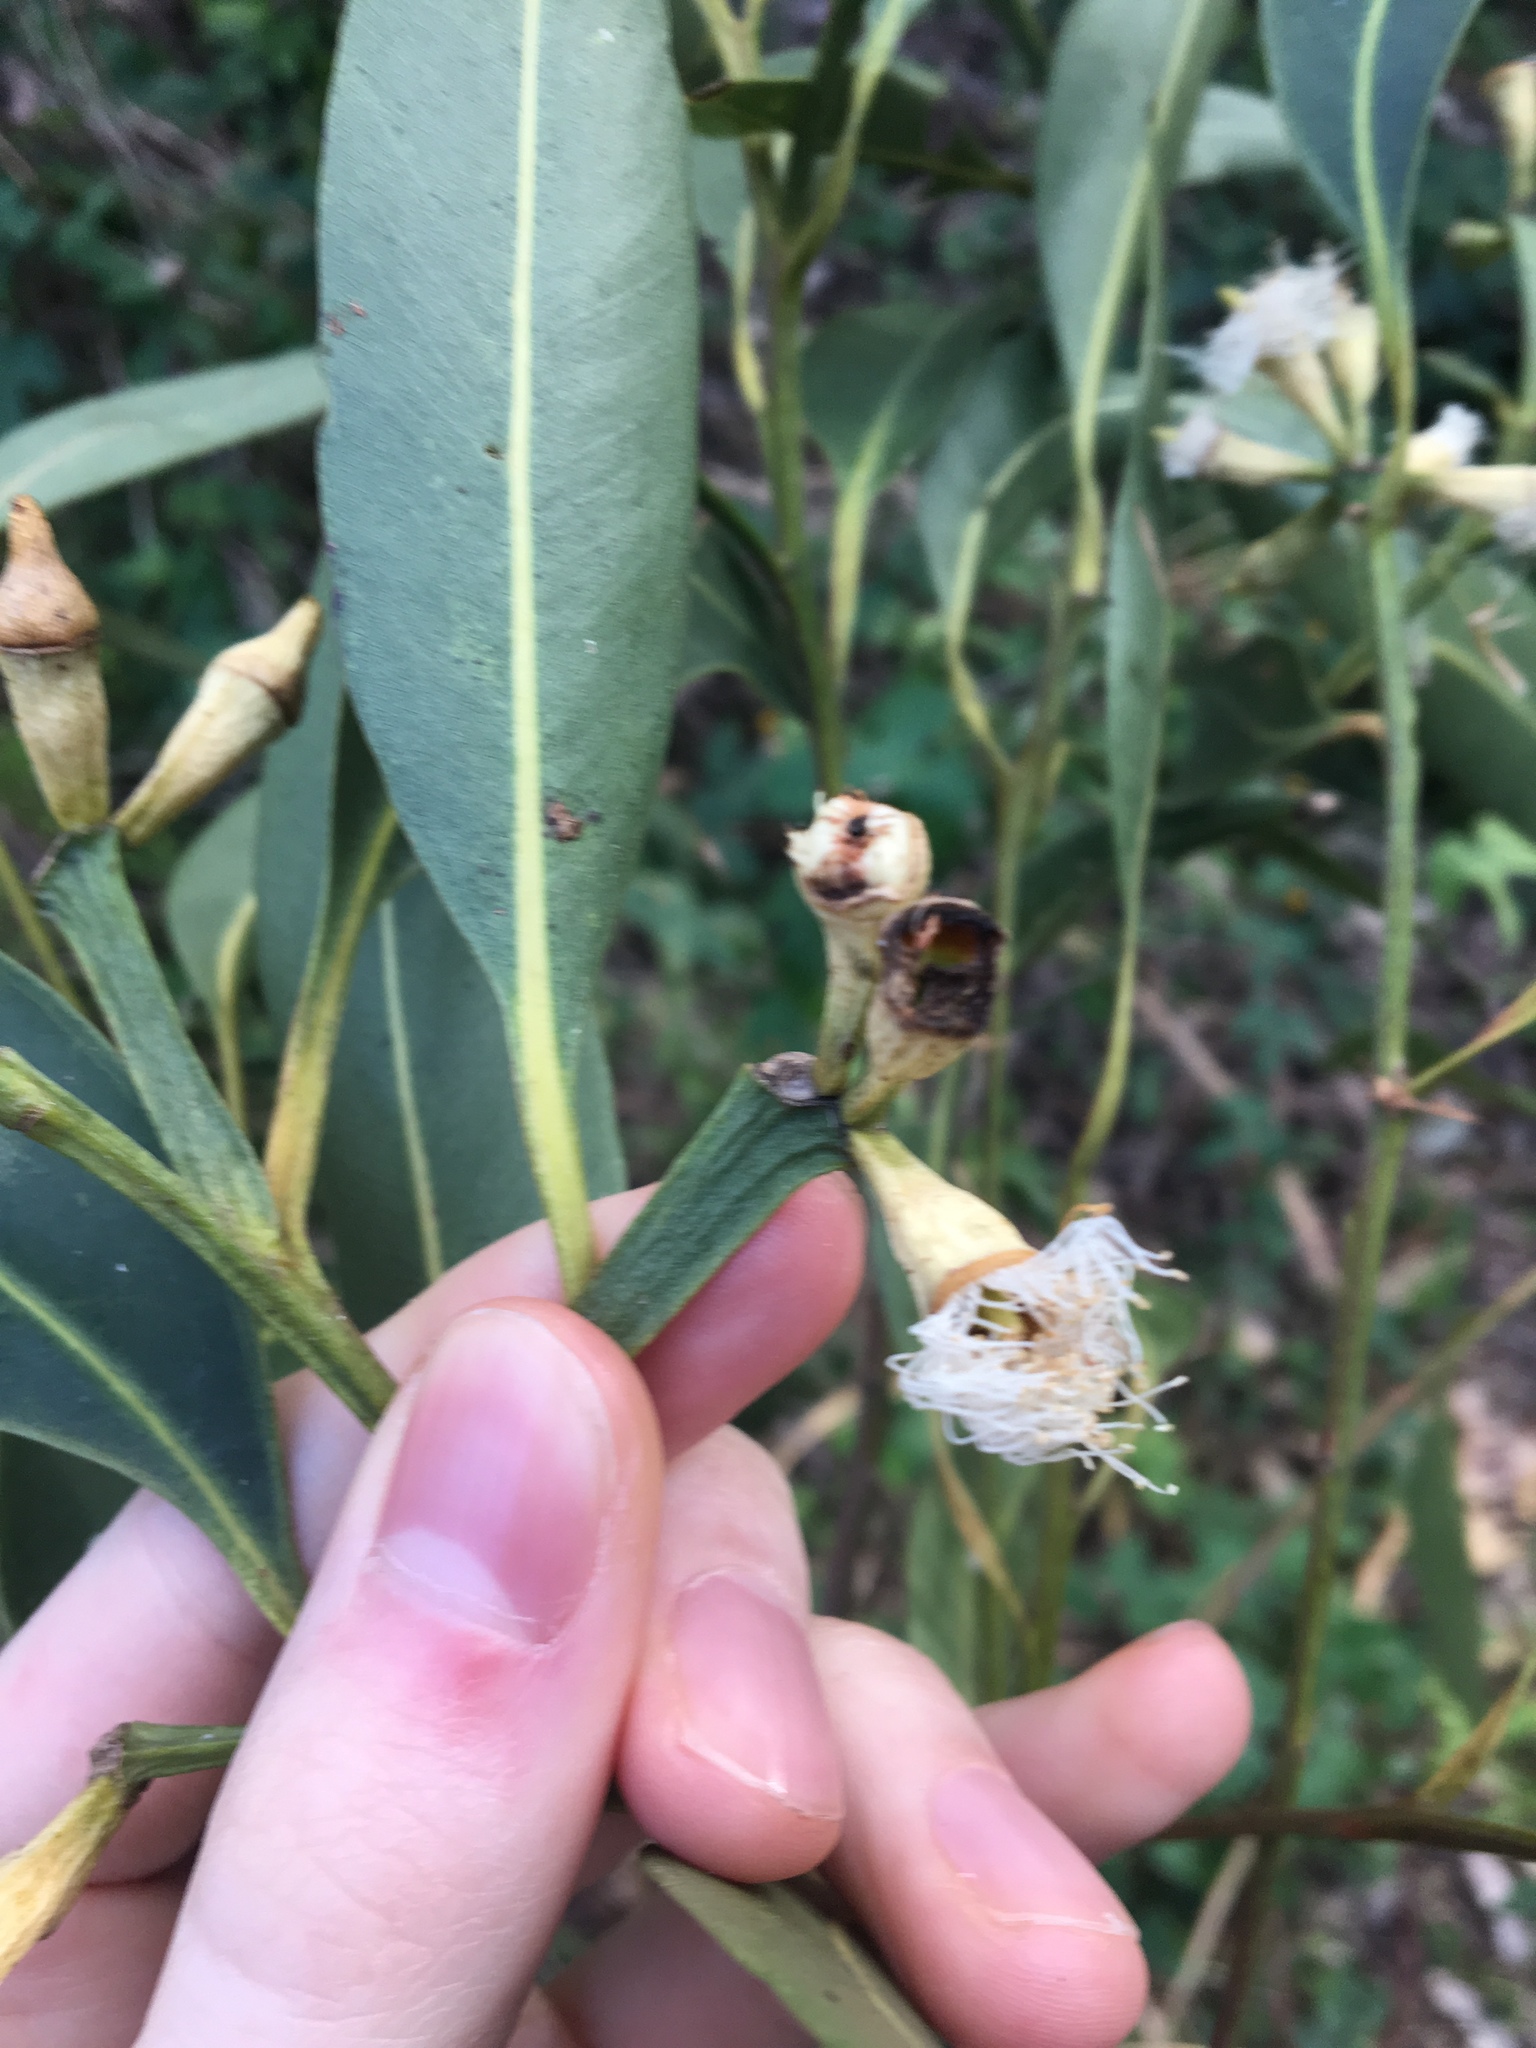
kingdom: Plantae
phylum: Tracheophyta
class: Magnoliopsida
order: Myrtales
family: Myrtaceae
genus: Eucalyptus
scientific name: Eucalyptus robusta
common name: Swampmahogany
